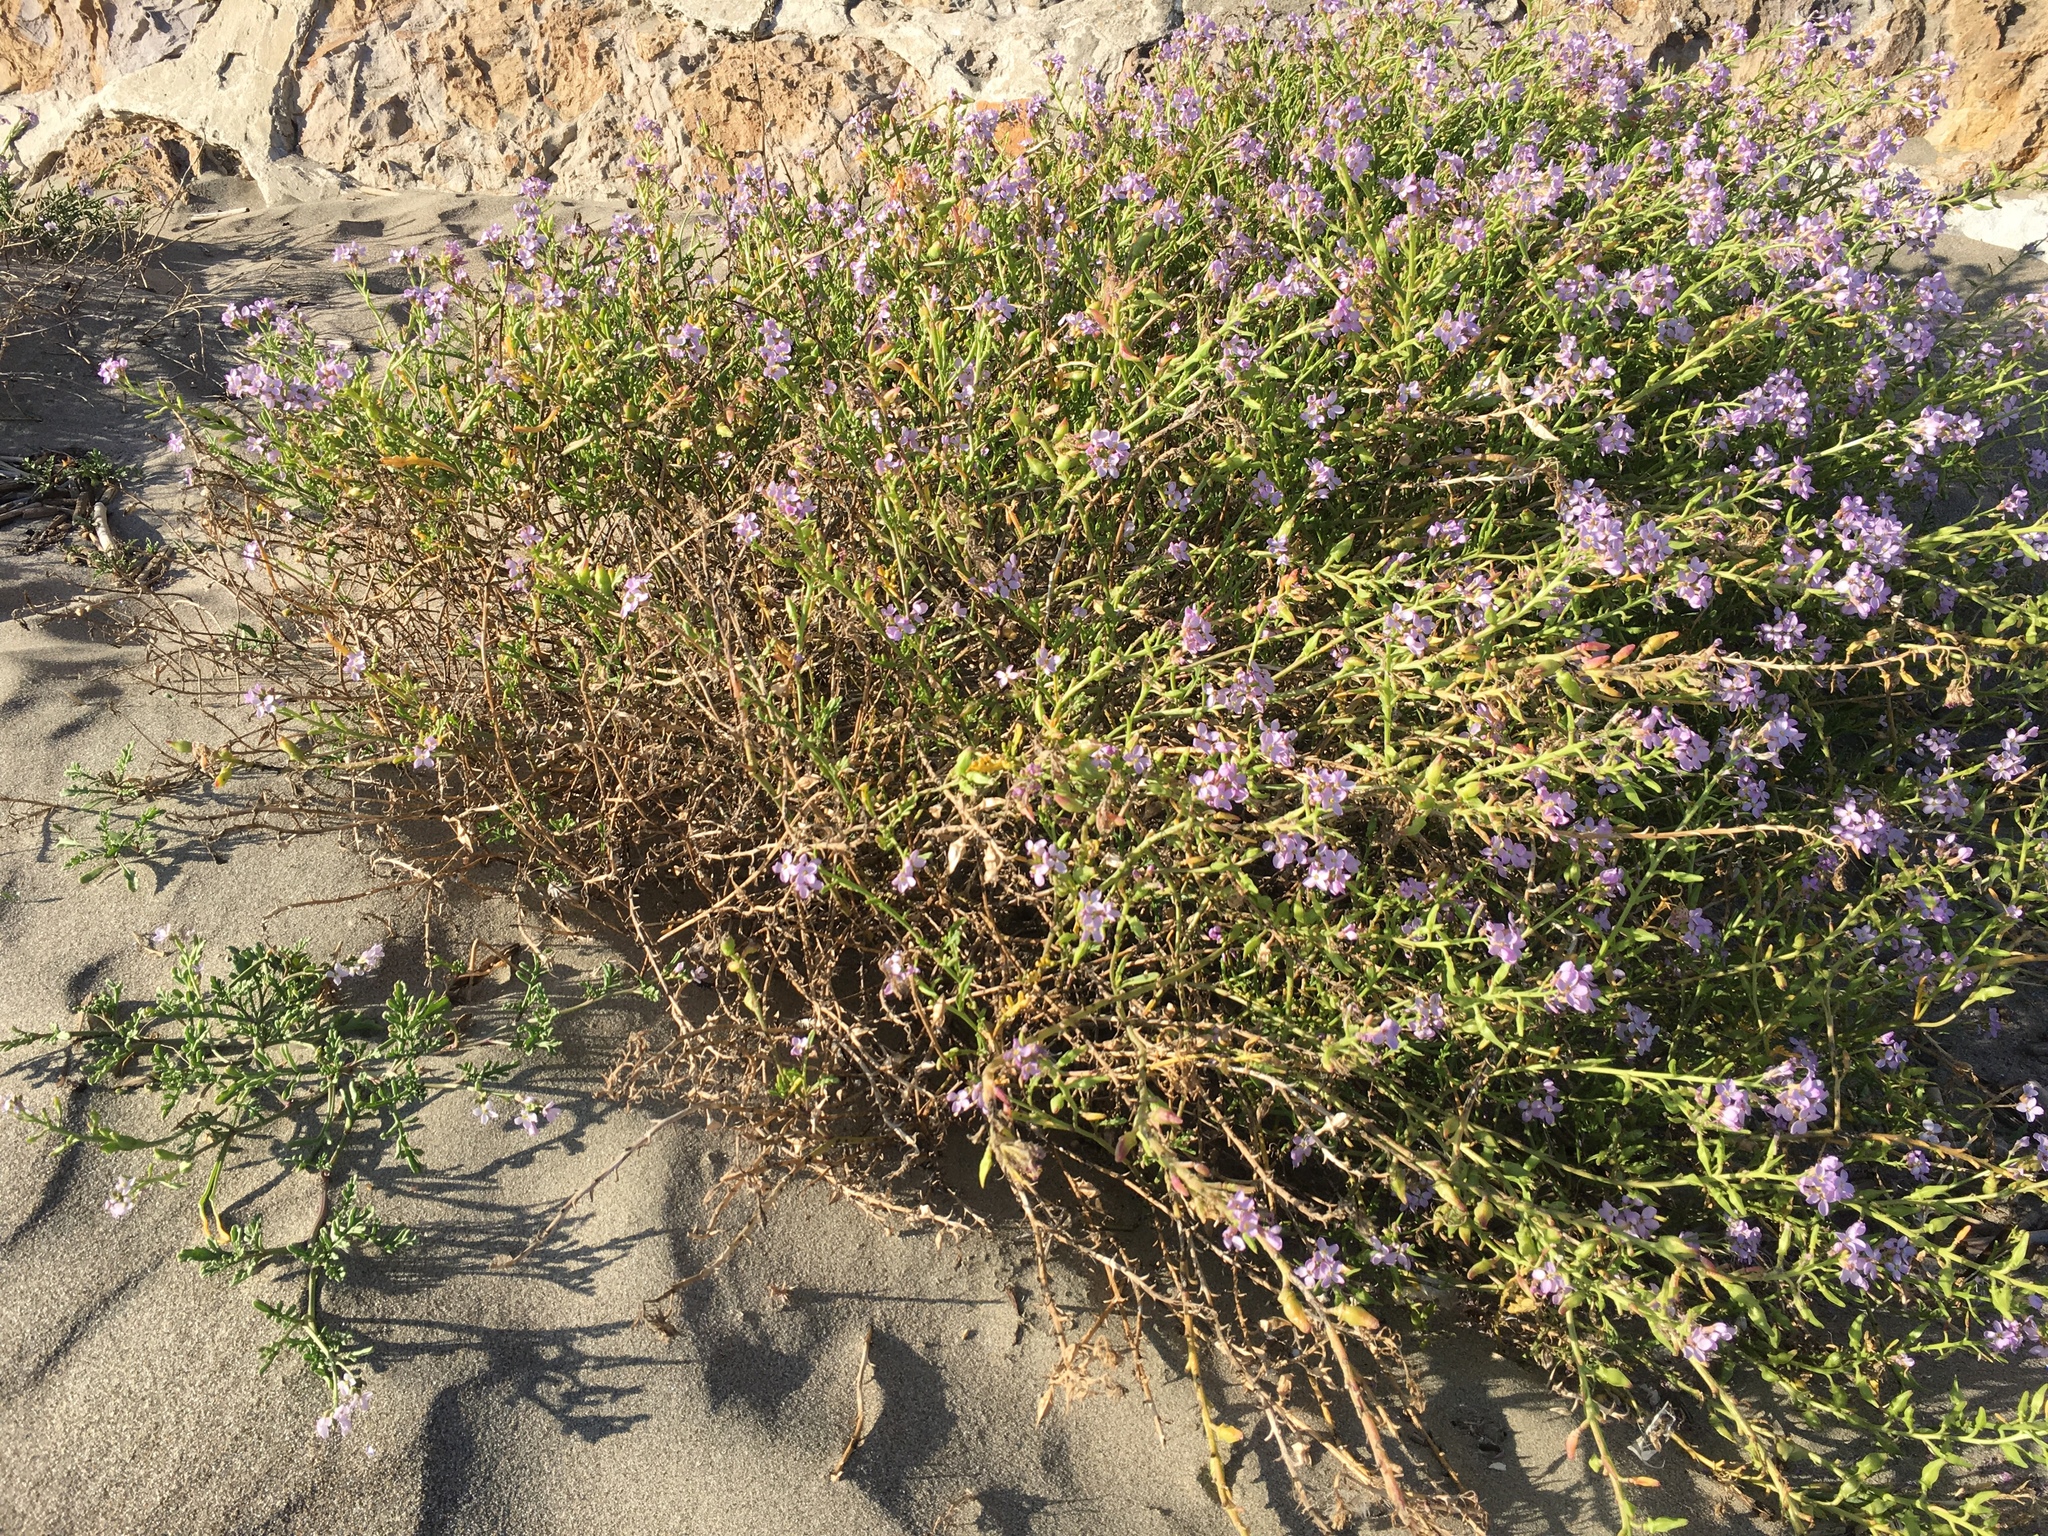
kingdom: Plantae
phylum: Tracheophyta
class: Magnoliopsida
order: Brassicales
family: Brassicaceae
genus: Cakile
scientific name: Cakile maritima
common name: Sea rocket
